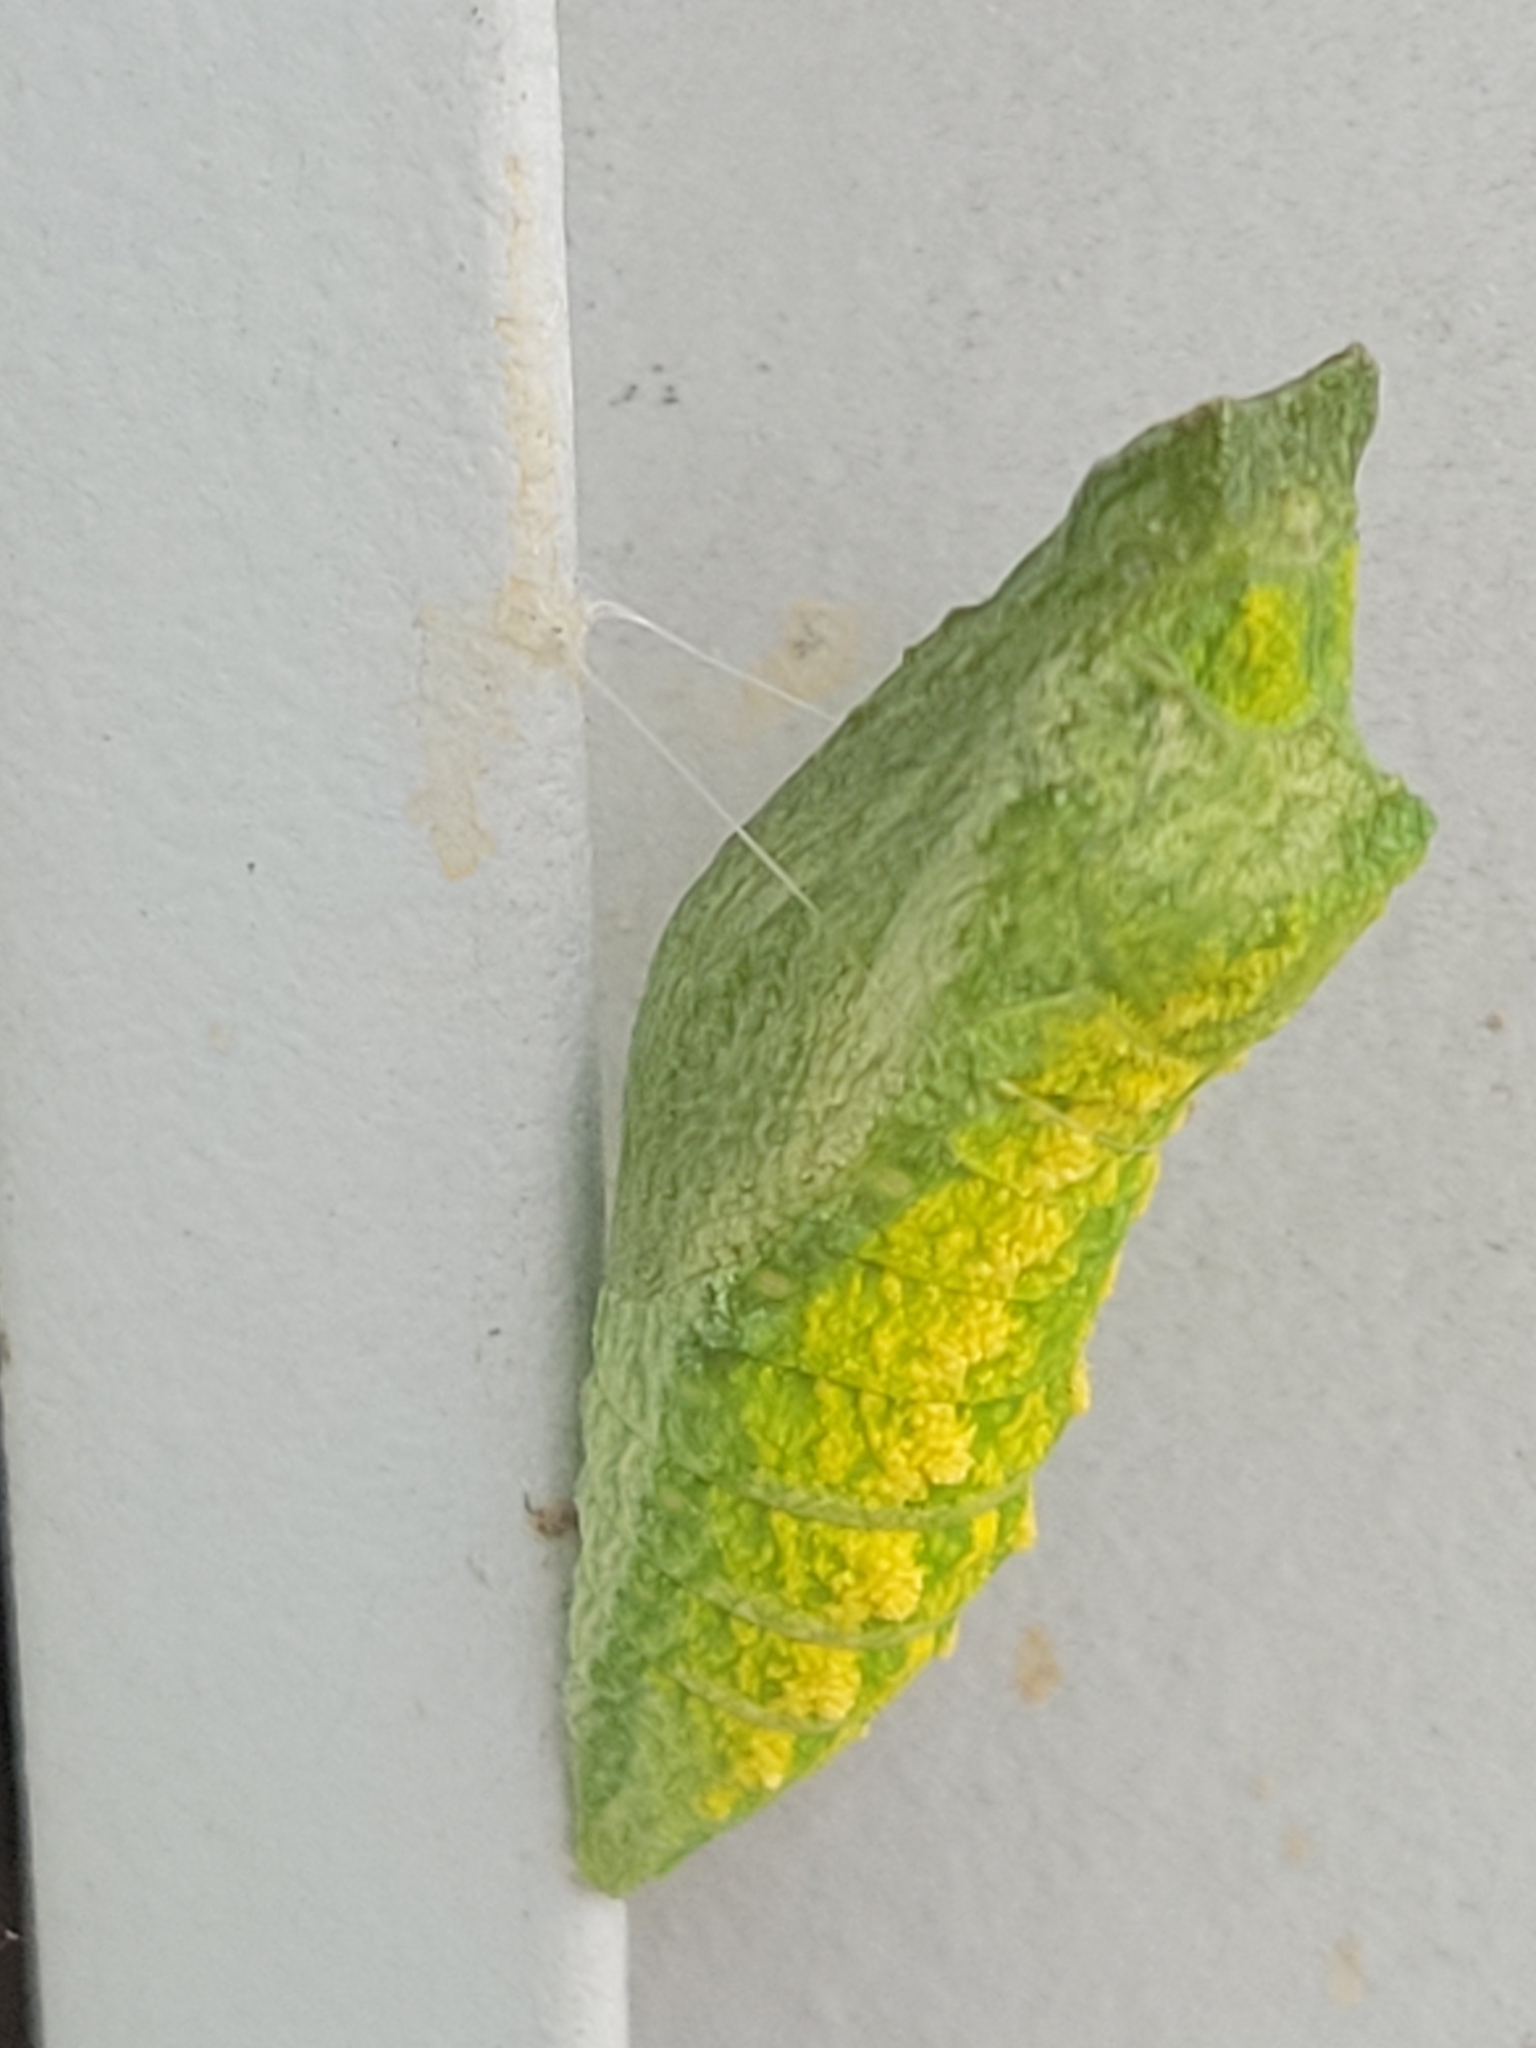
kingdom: Animalia
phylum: Arthropoda
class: Insecta
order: Lepidoptera
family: Papilionidae
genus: Papilio
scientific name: Papilio polyxenes
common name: Black swallowtail
